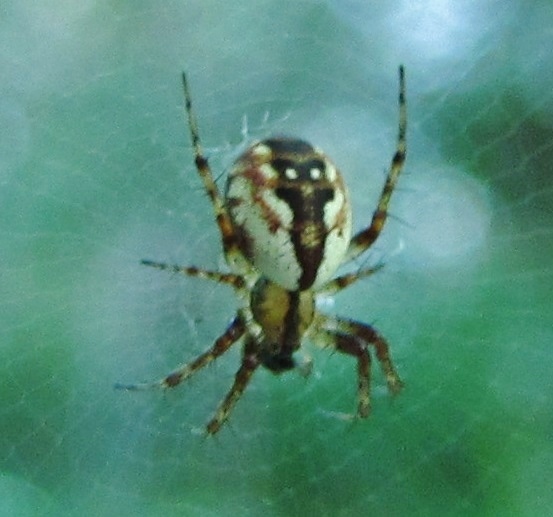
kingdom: Animalia
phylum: Arthropoda
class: Arachnida
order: Araneae
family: Araneidae
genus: Mangora
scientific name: Mangora placida
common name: Tuft-legged orbweaver
